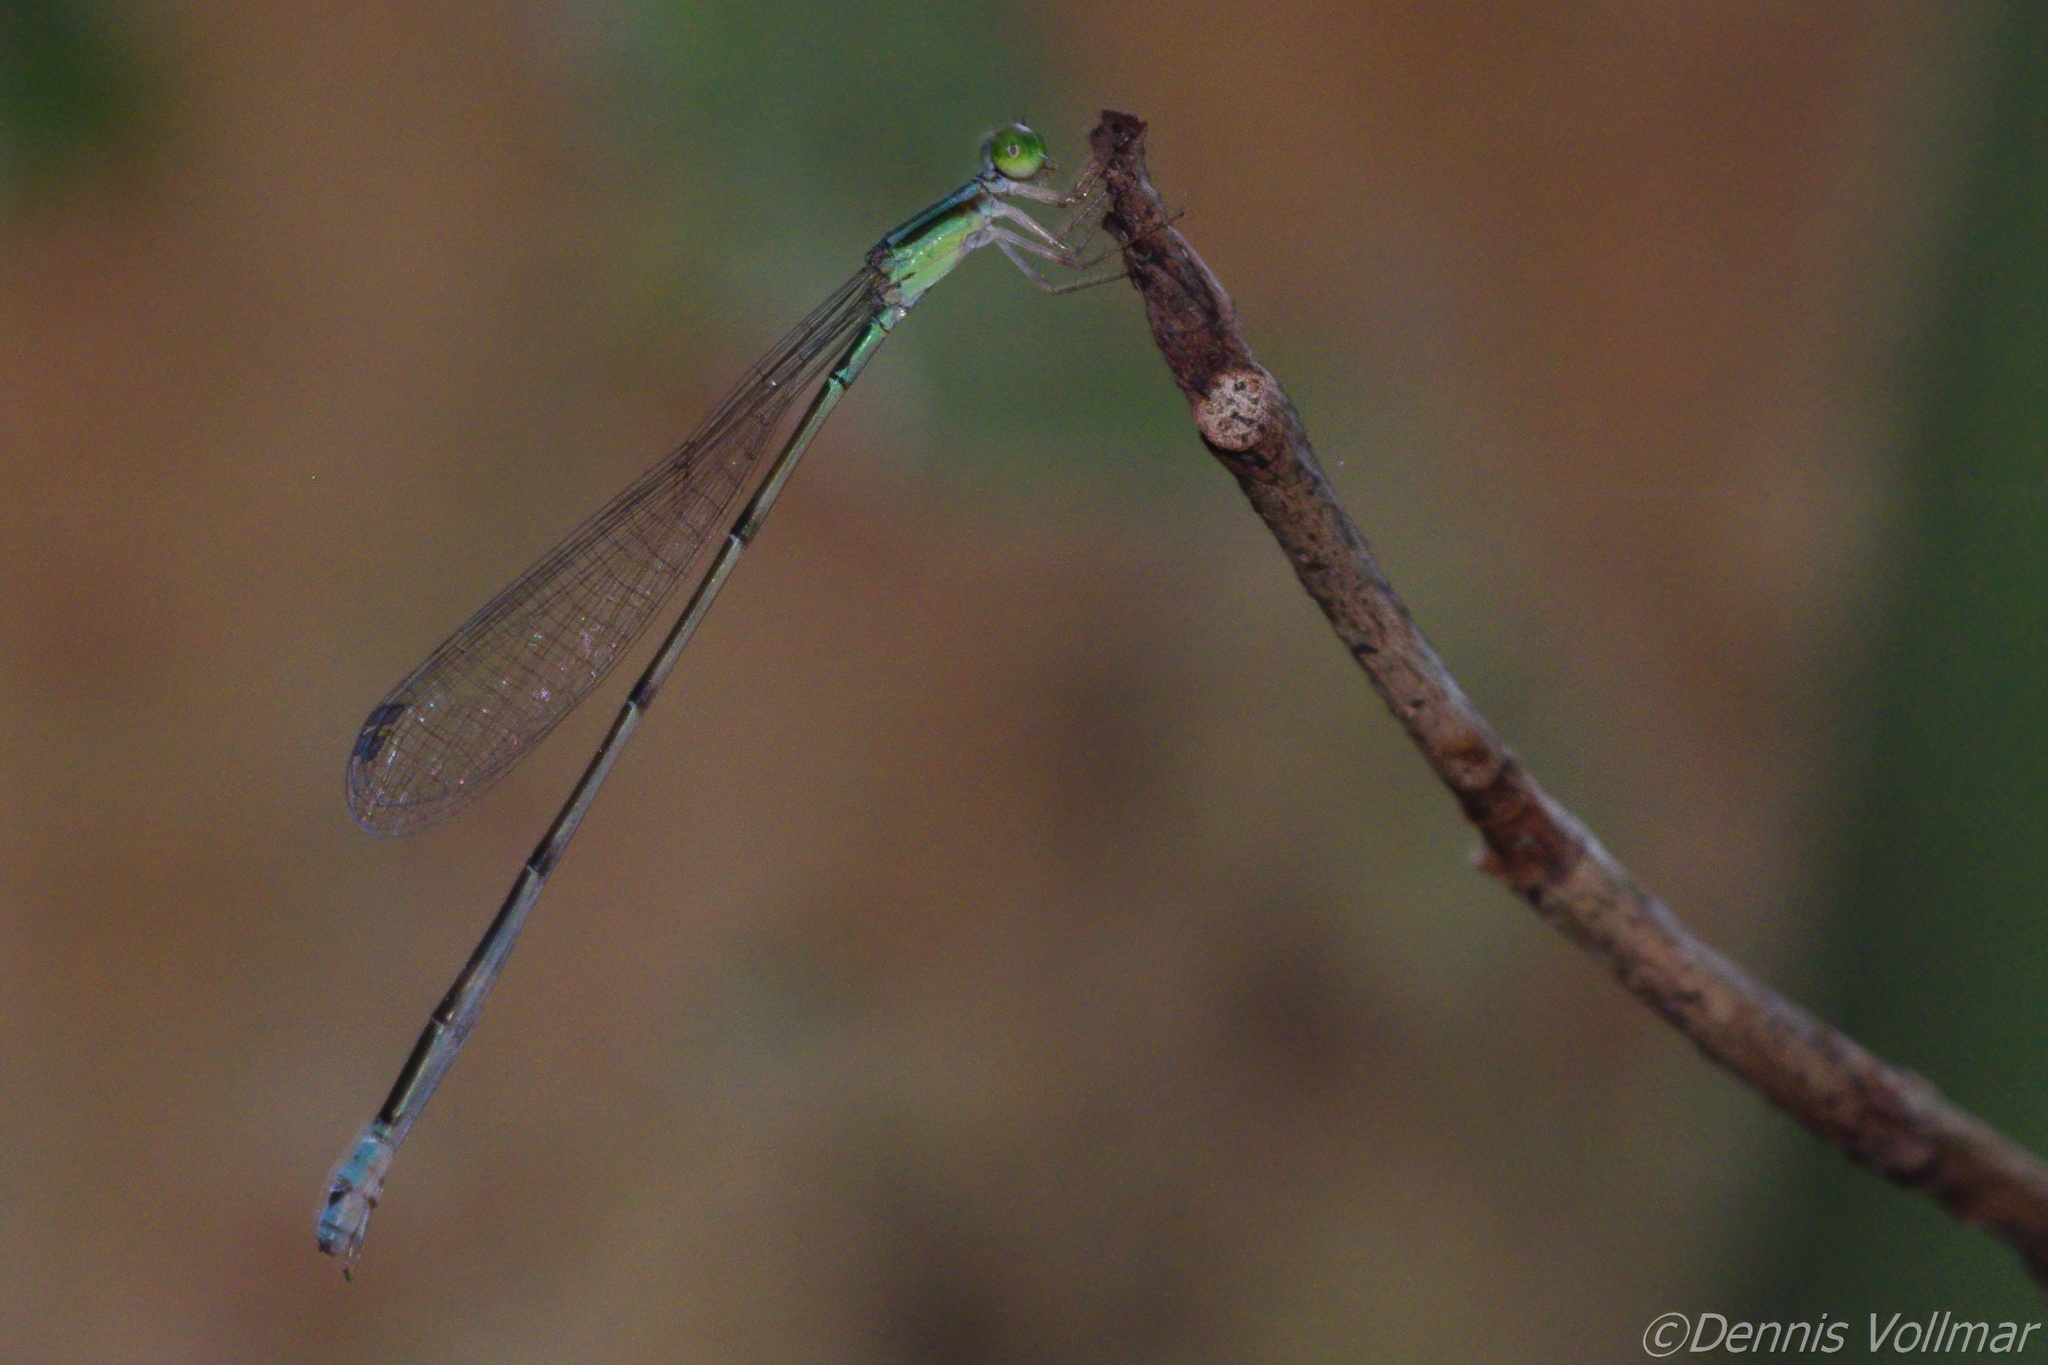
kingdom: Animalia
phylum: Arthropoda
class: Insecta
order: Odonata
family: Coenagrionidae
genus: Leptobasis
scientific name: Leptobasis lucifer
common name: Lucifer swampdamsel
